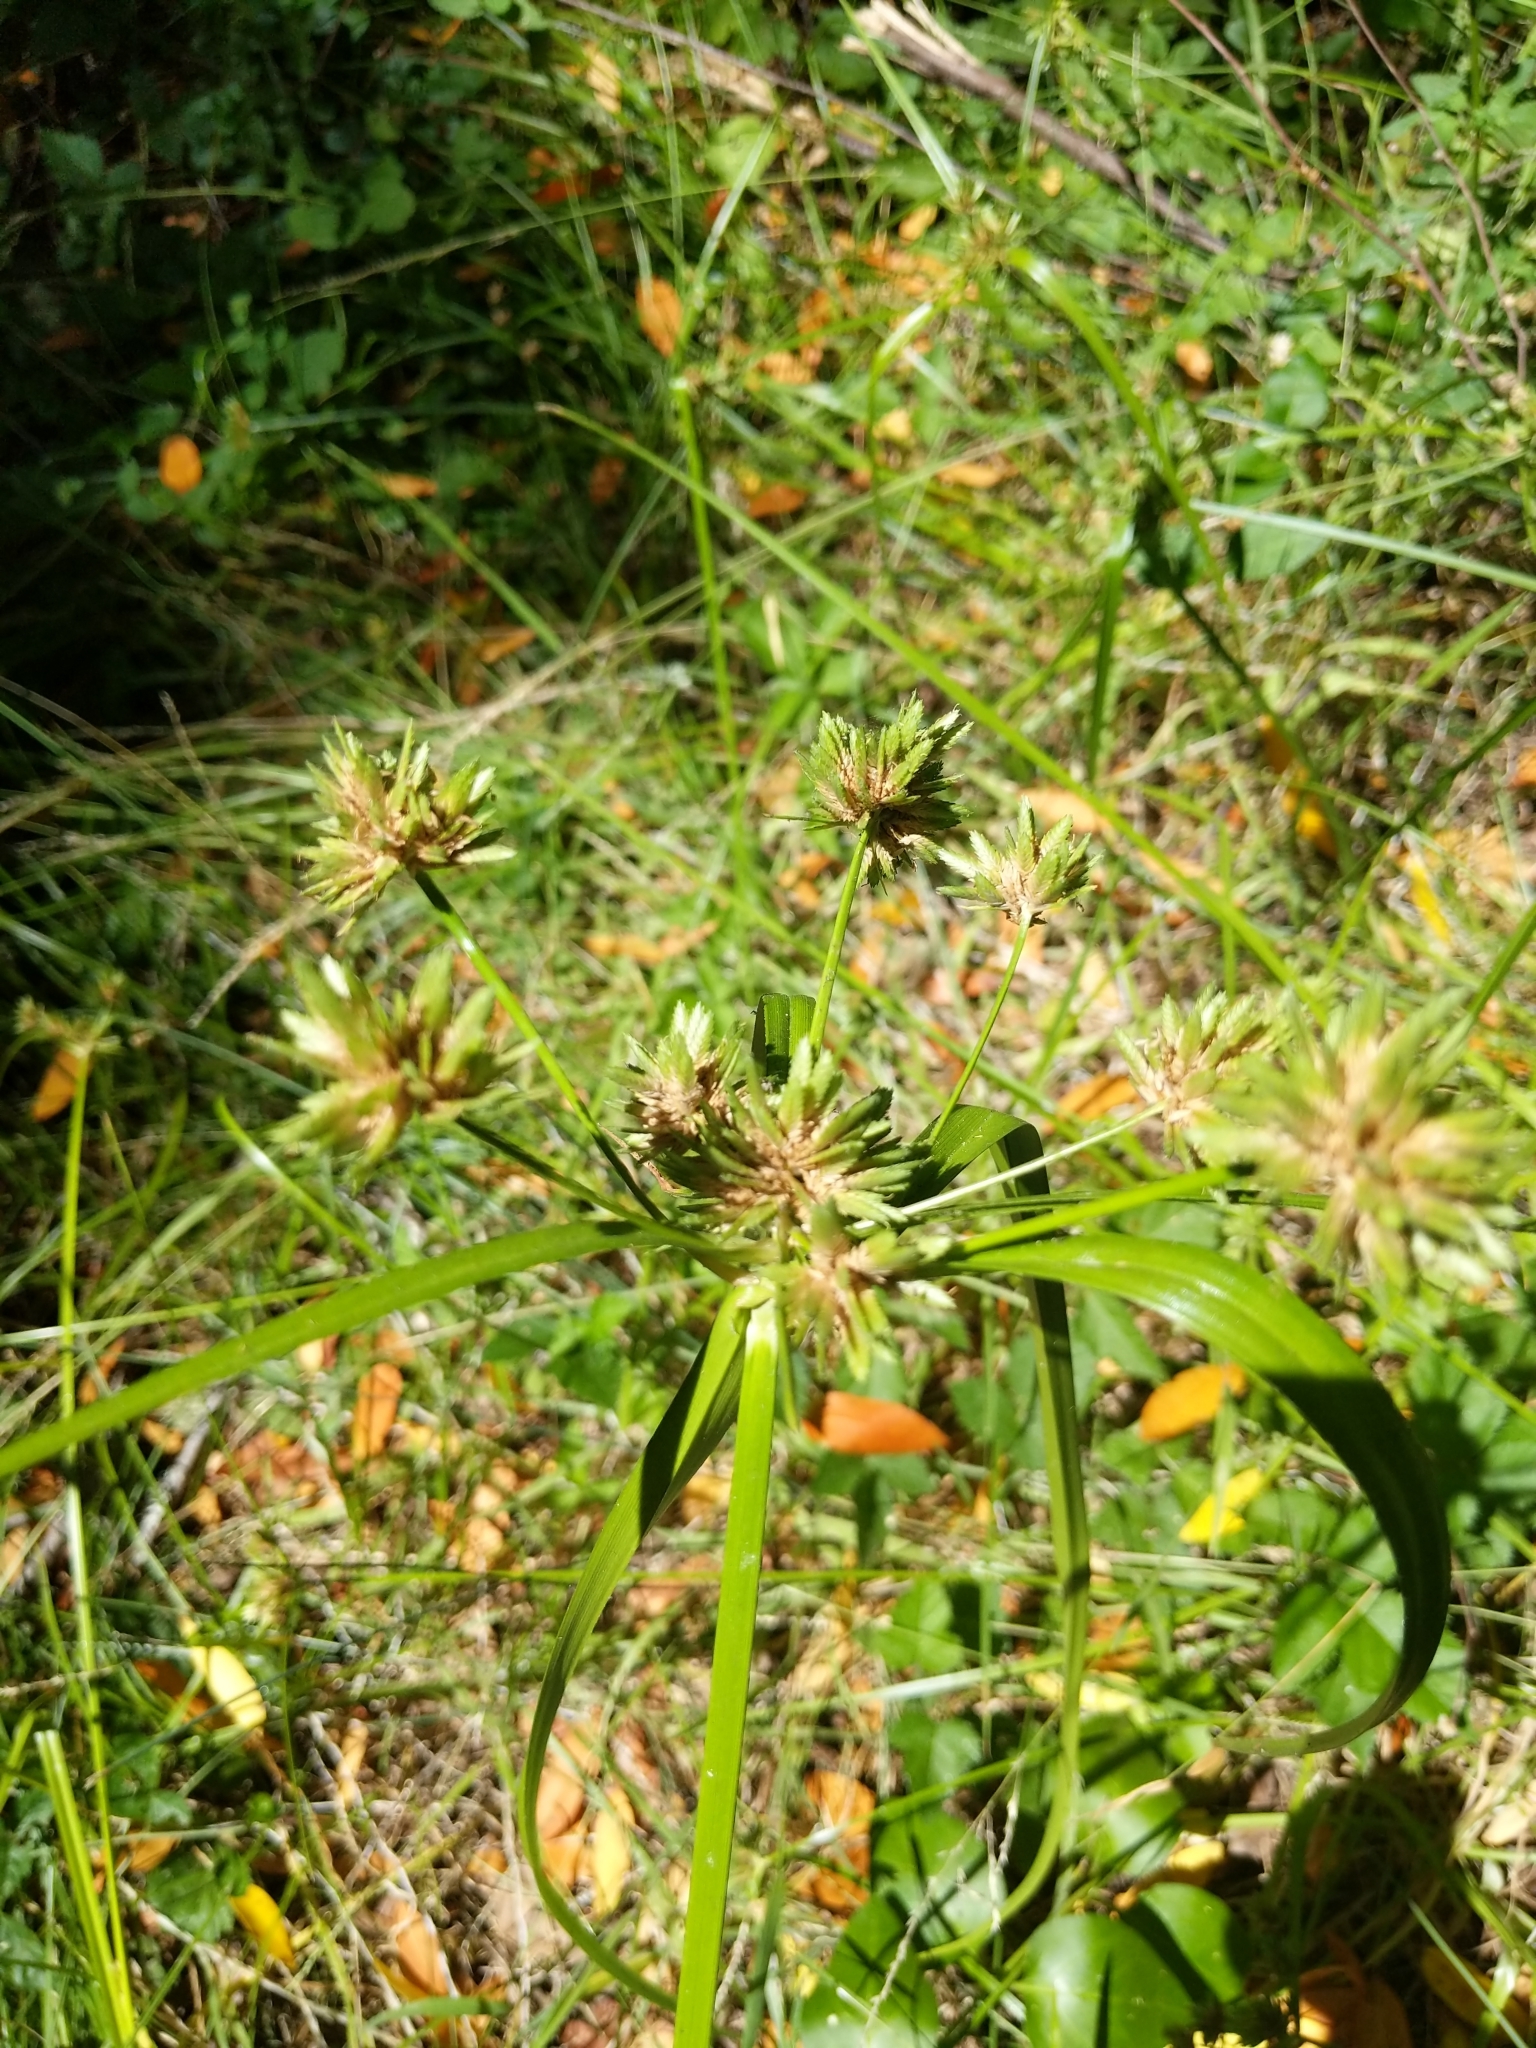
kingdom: Plantae
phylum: Tracheophyta
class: Liliopsida
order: Poales
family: Cyperaceae
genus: Cyperus
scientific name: Cyperus eragrostis
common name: Tall flatsedge
